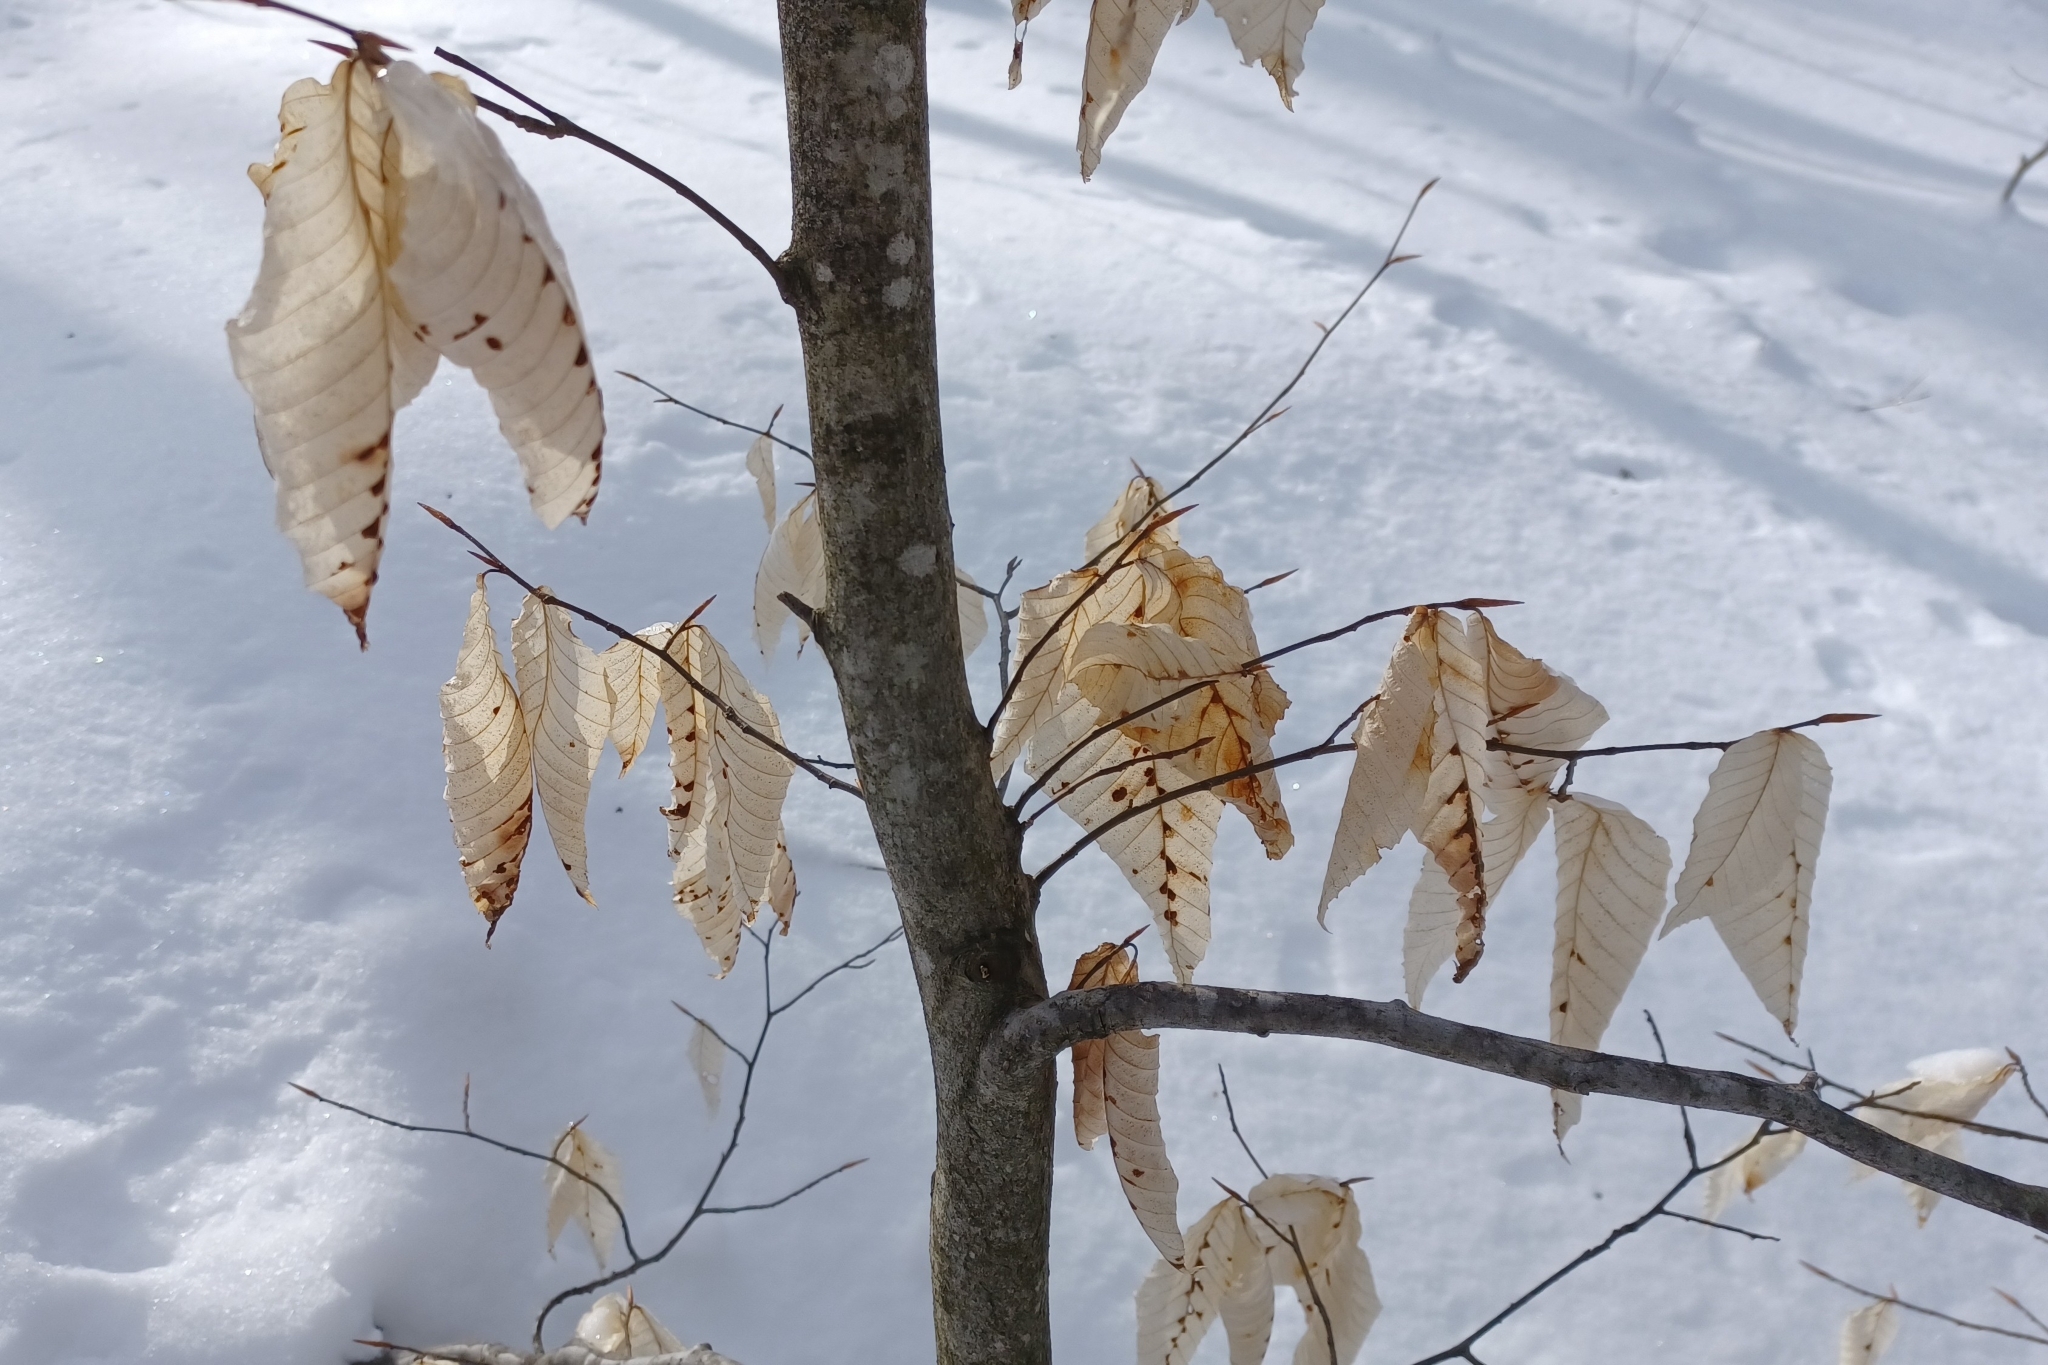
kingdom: Animalia
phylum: Arthropoda
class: Arachnida
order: Trombidiformes
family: Eriophyidae
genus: Acalitus
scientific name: Acalitus
